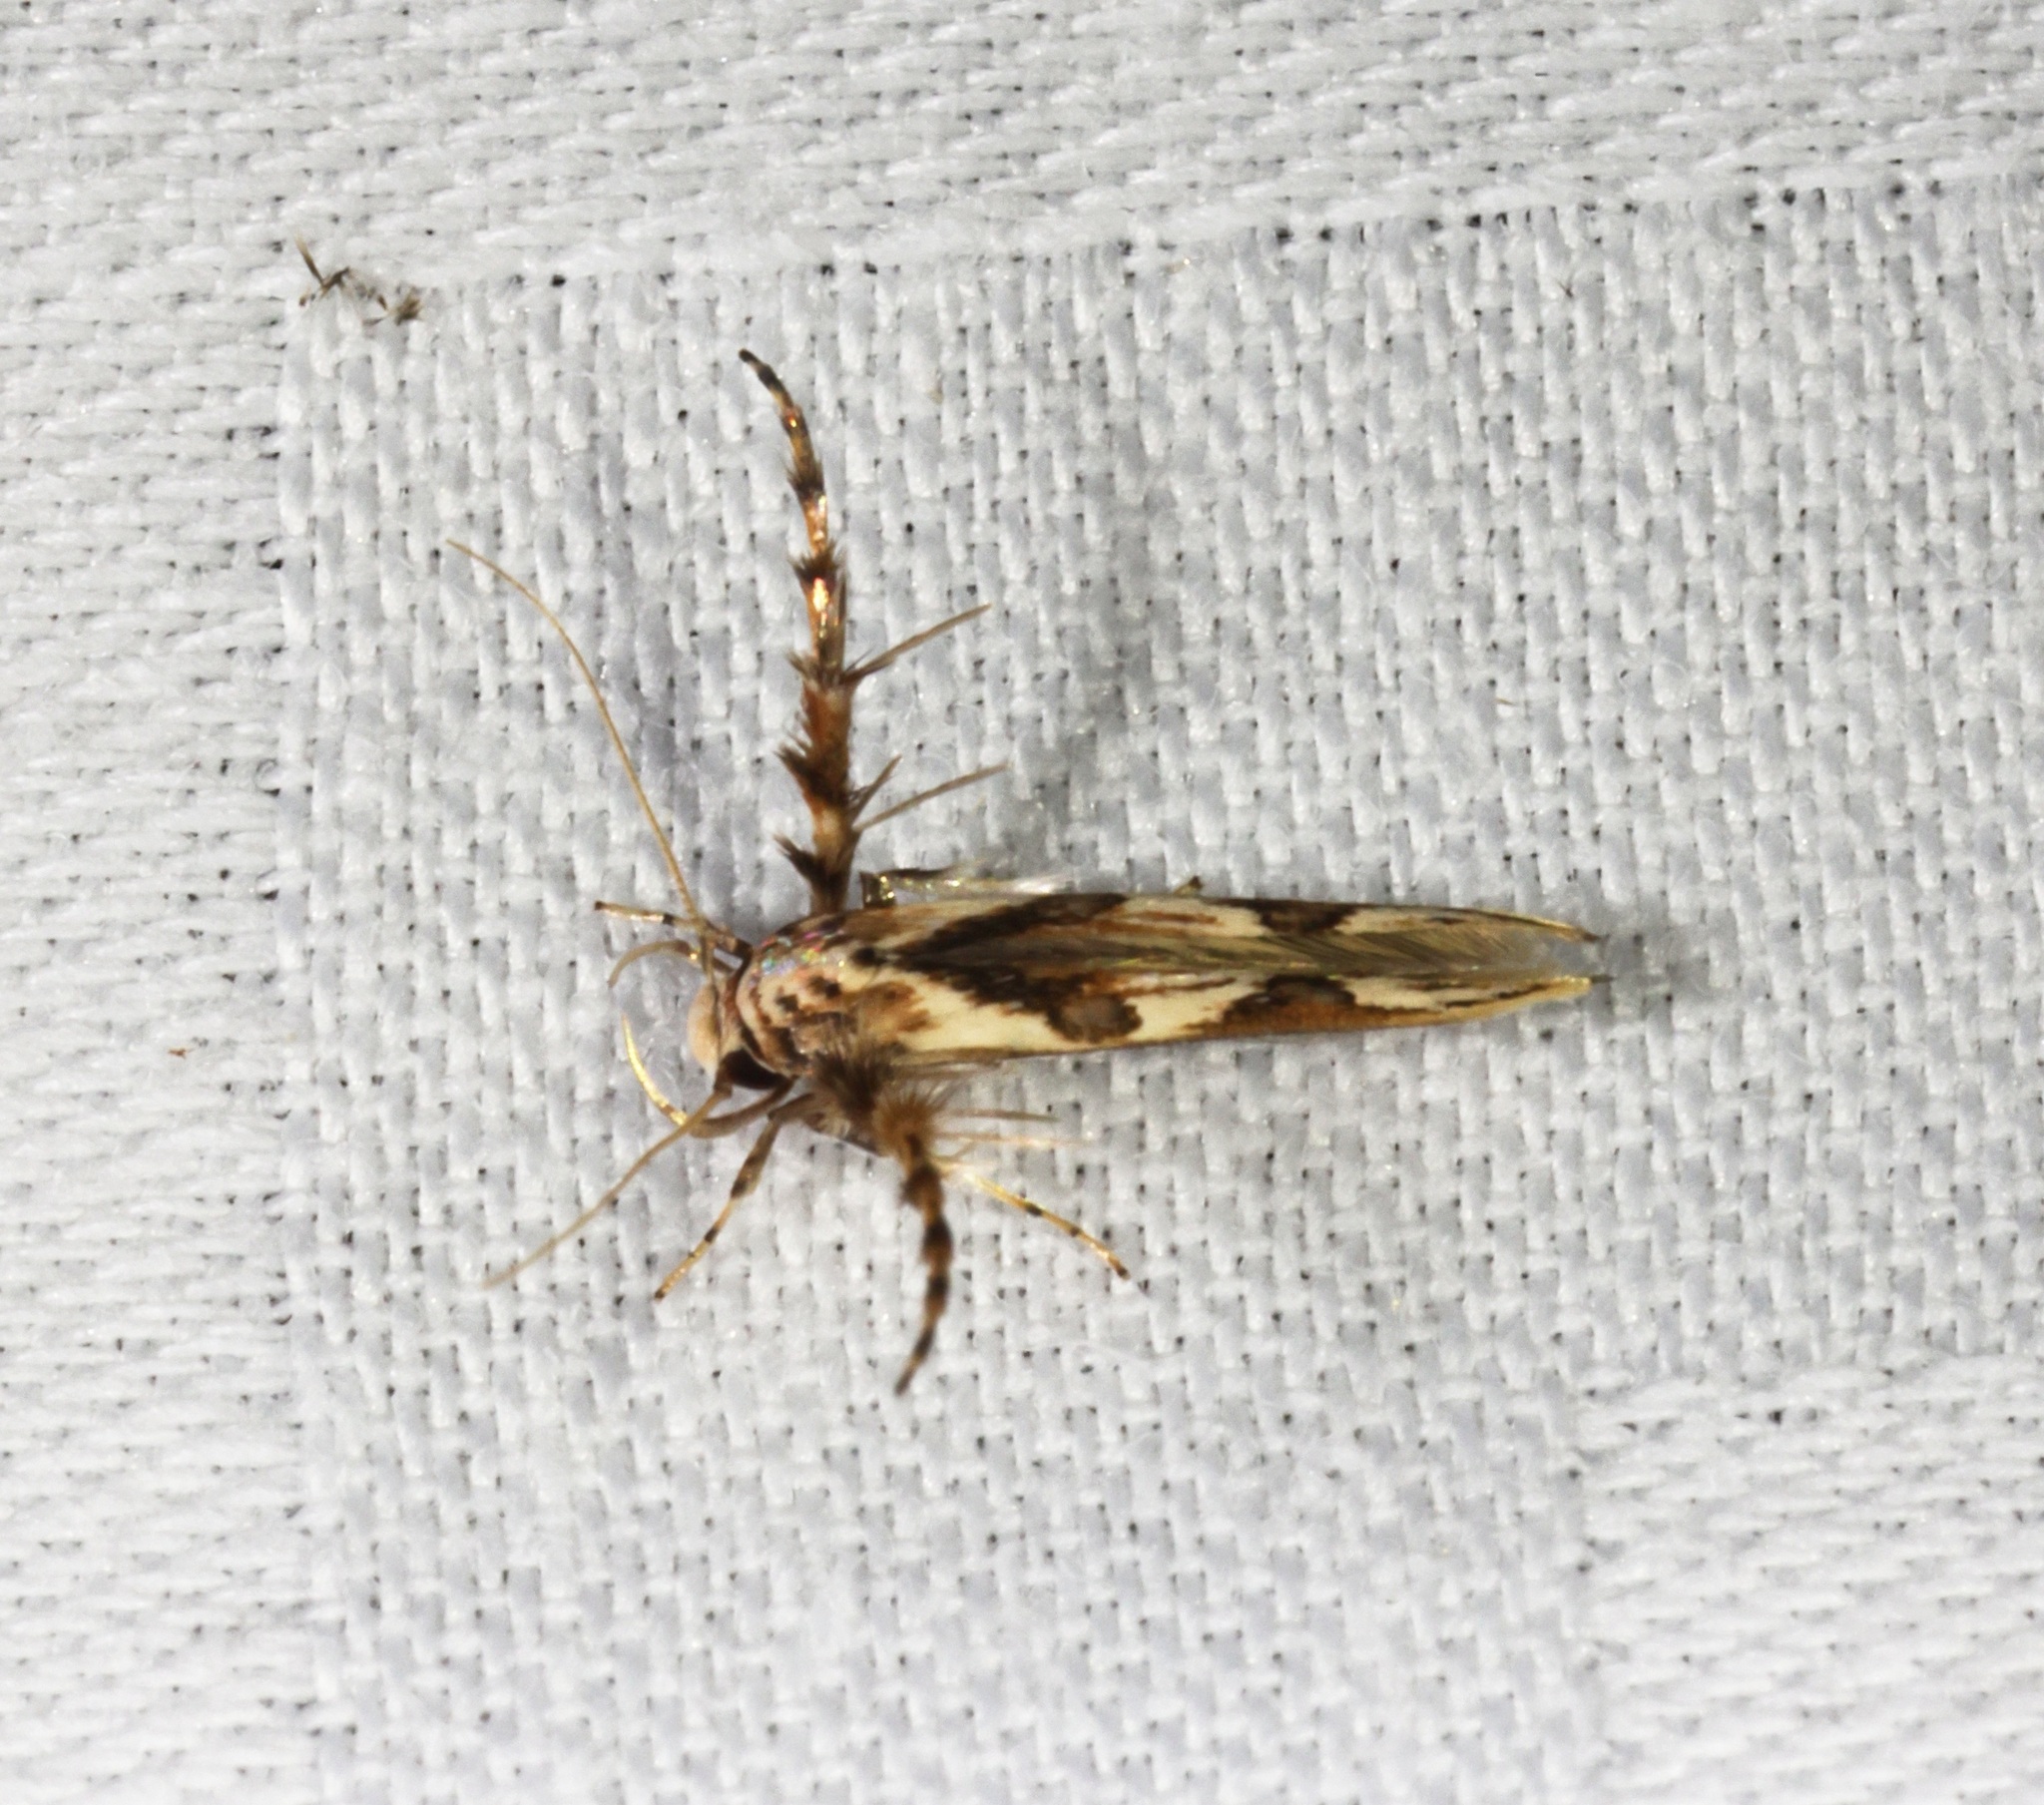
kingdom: Animalia
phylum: Arthropoda
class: Insecta
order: Lepidoptera
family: Stathmopodidae
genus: Stathmopoda
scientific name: Stathmopoda stimulata
